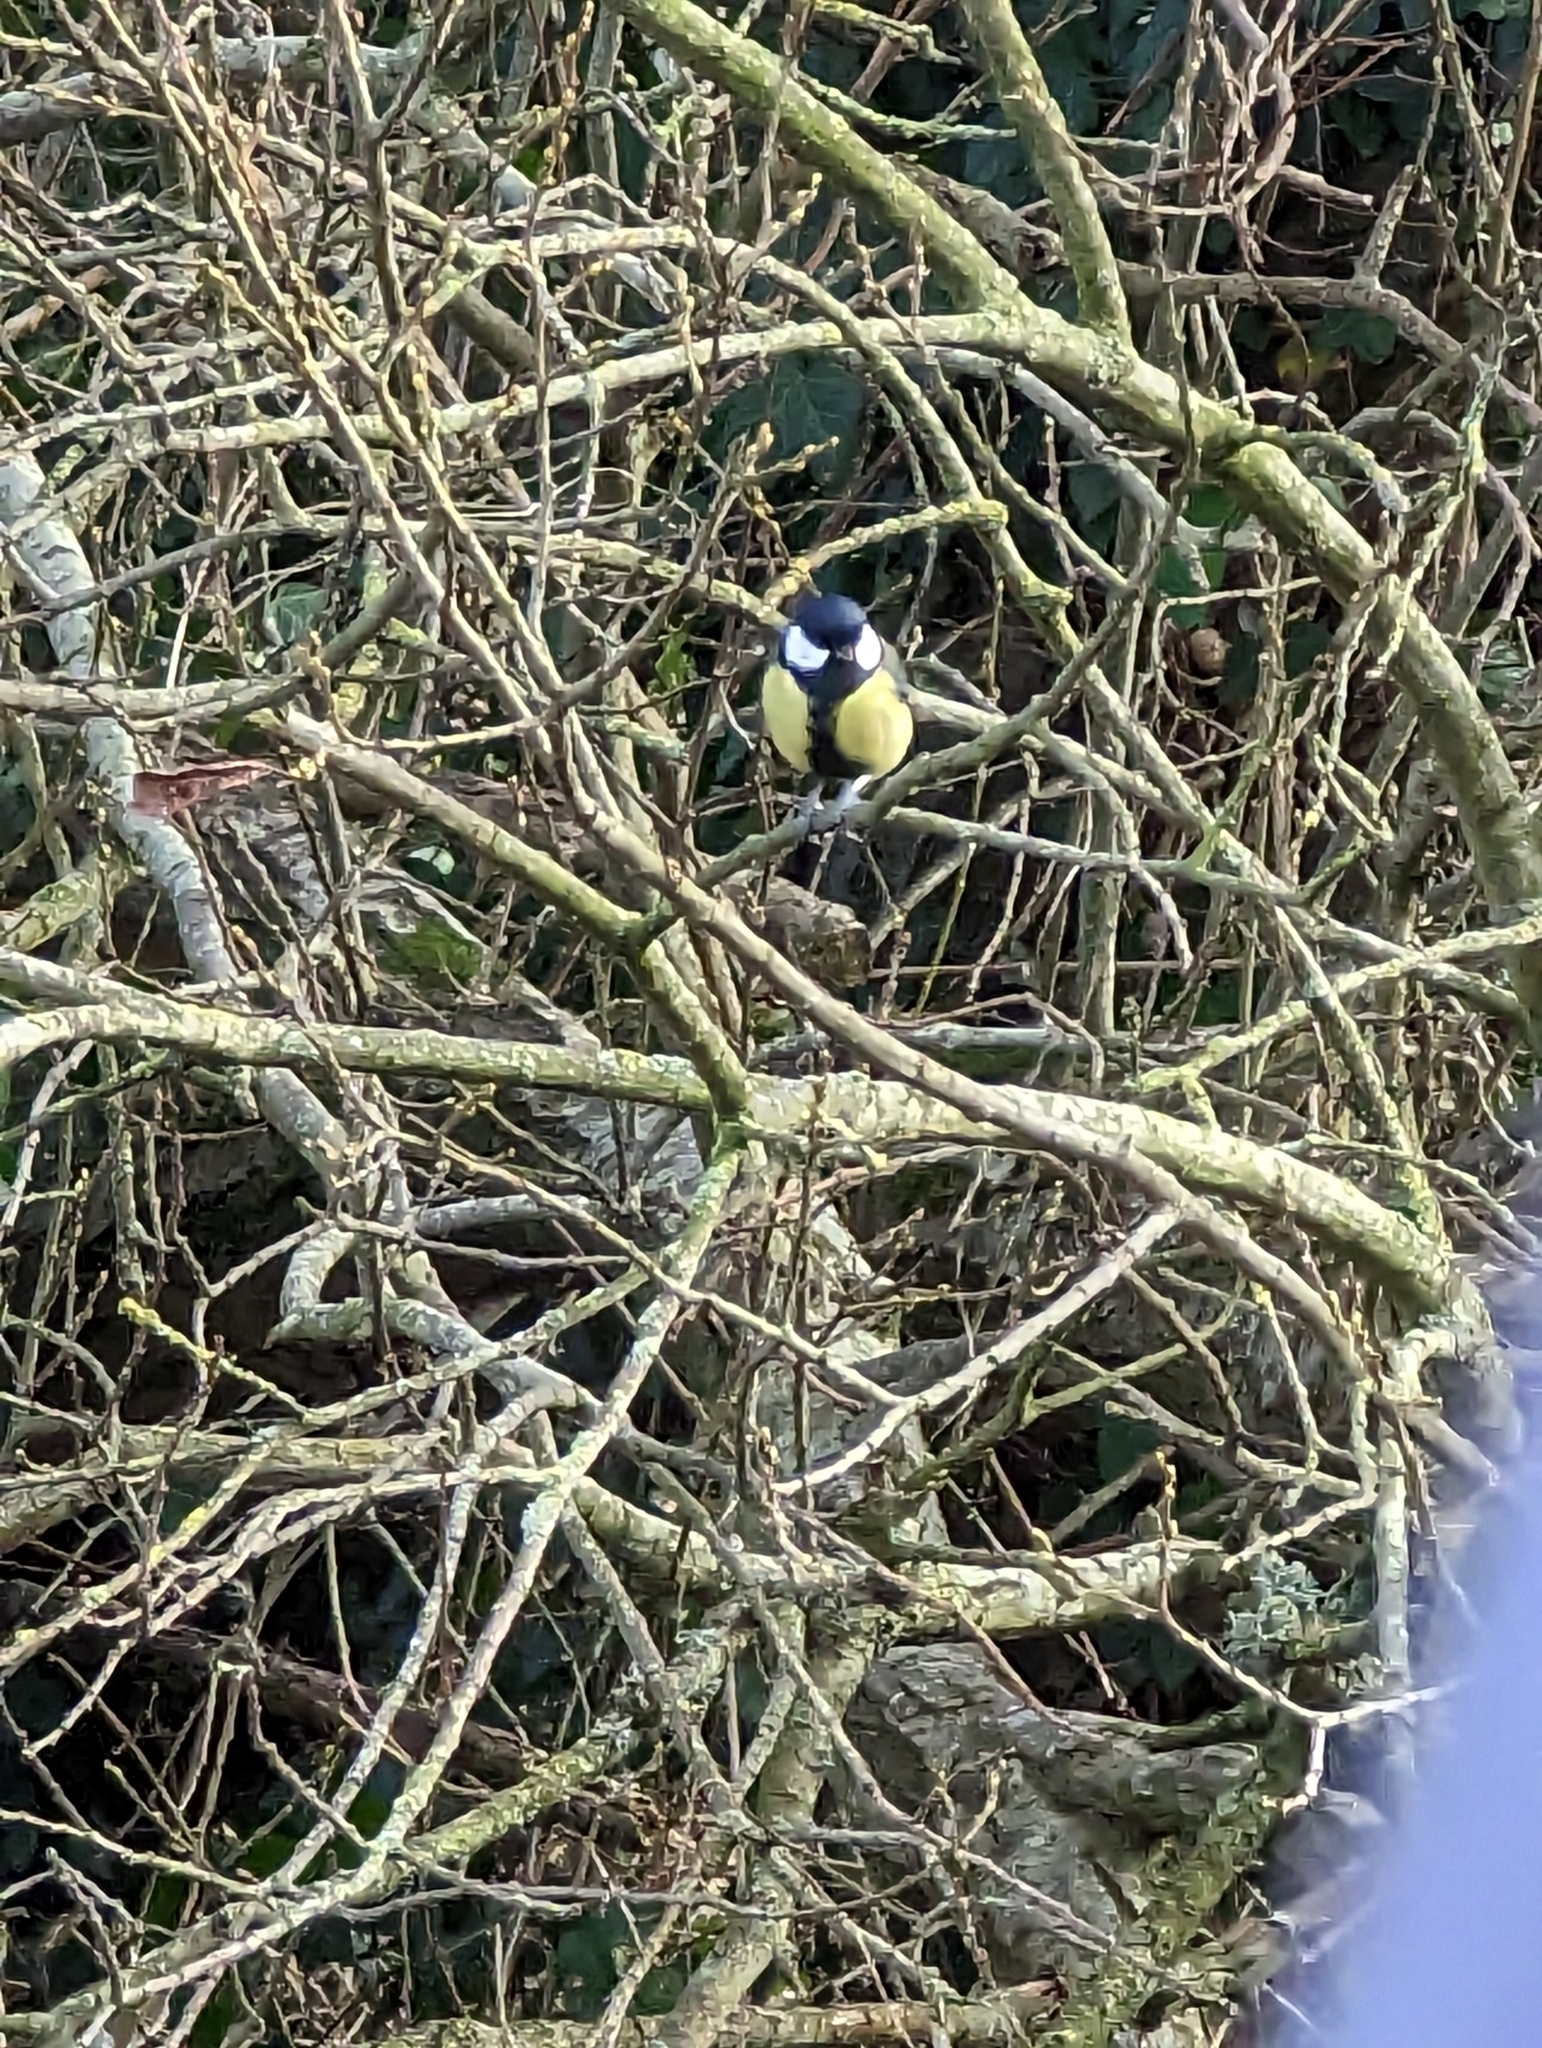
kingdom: Animalia
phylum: Chordata
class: Aves
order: Passeriformes
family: Paridae
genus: Parus
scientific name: Parus major
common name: Great tit
